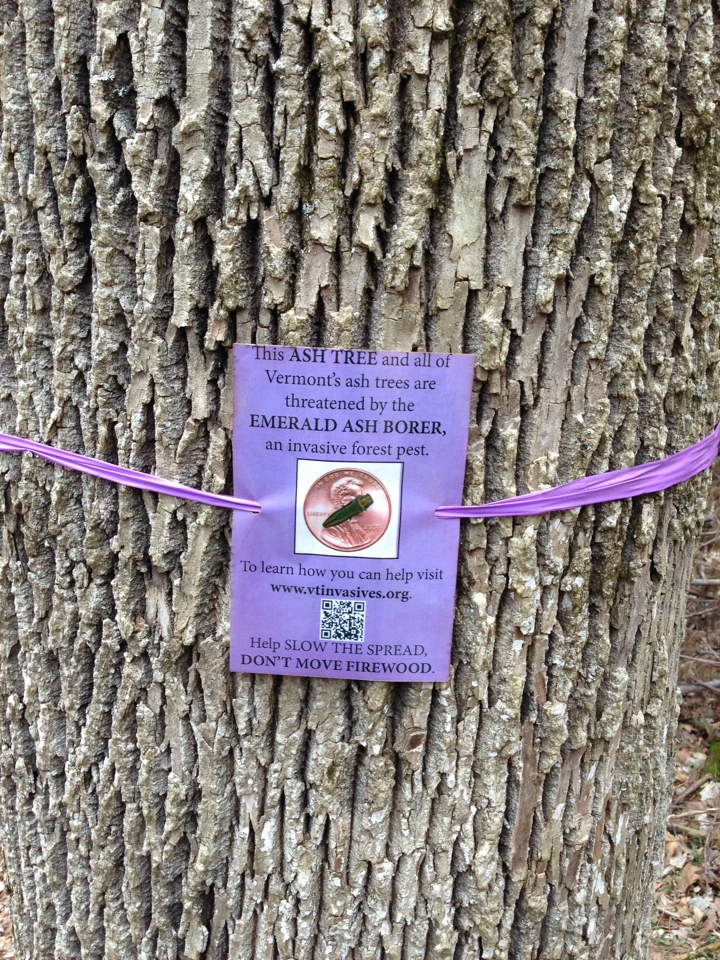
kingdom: Plantae
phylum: Tracheophyta
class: Magnoliopsida
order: Lamiales
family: Oleaceae
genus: Fraxinus
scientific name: Fraxinus americana
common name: White ash
